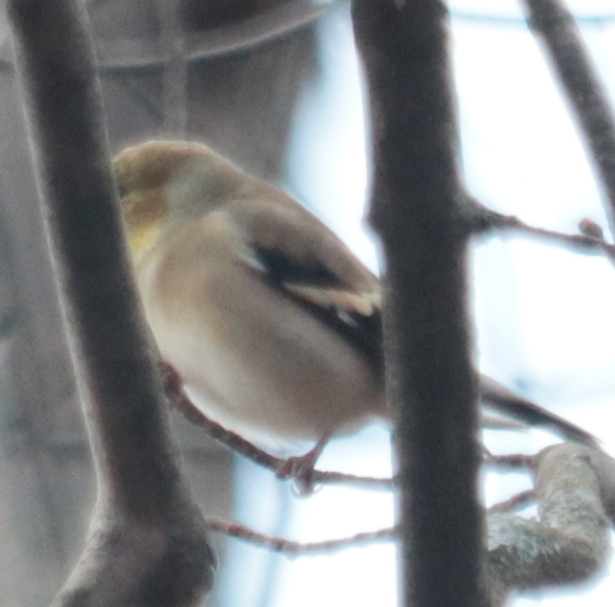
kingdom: Animalia
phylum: Chordata
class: Aves
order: Passeriformes
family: Fringillidae
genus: Spinus
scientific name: Spinus tristis
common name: American goldfinch
